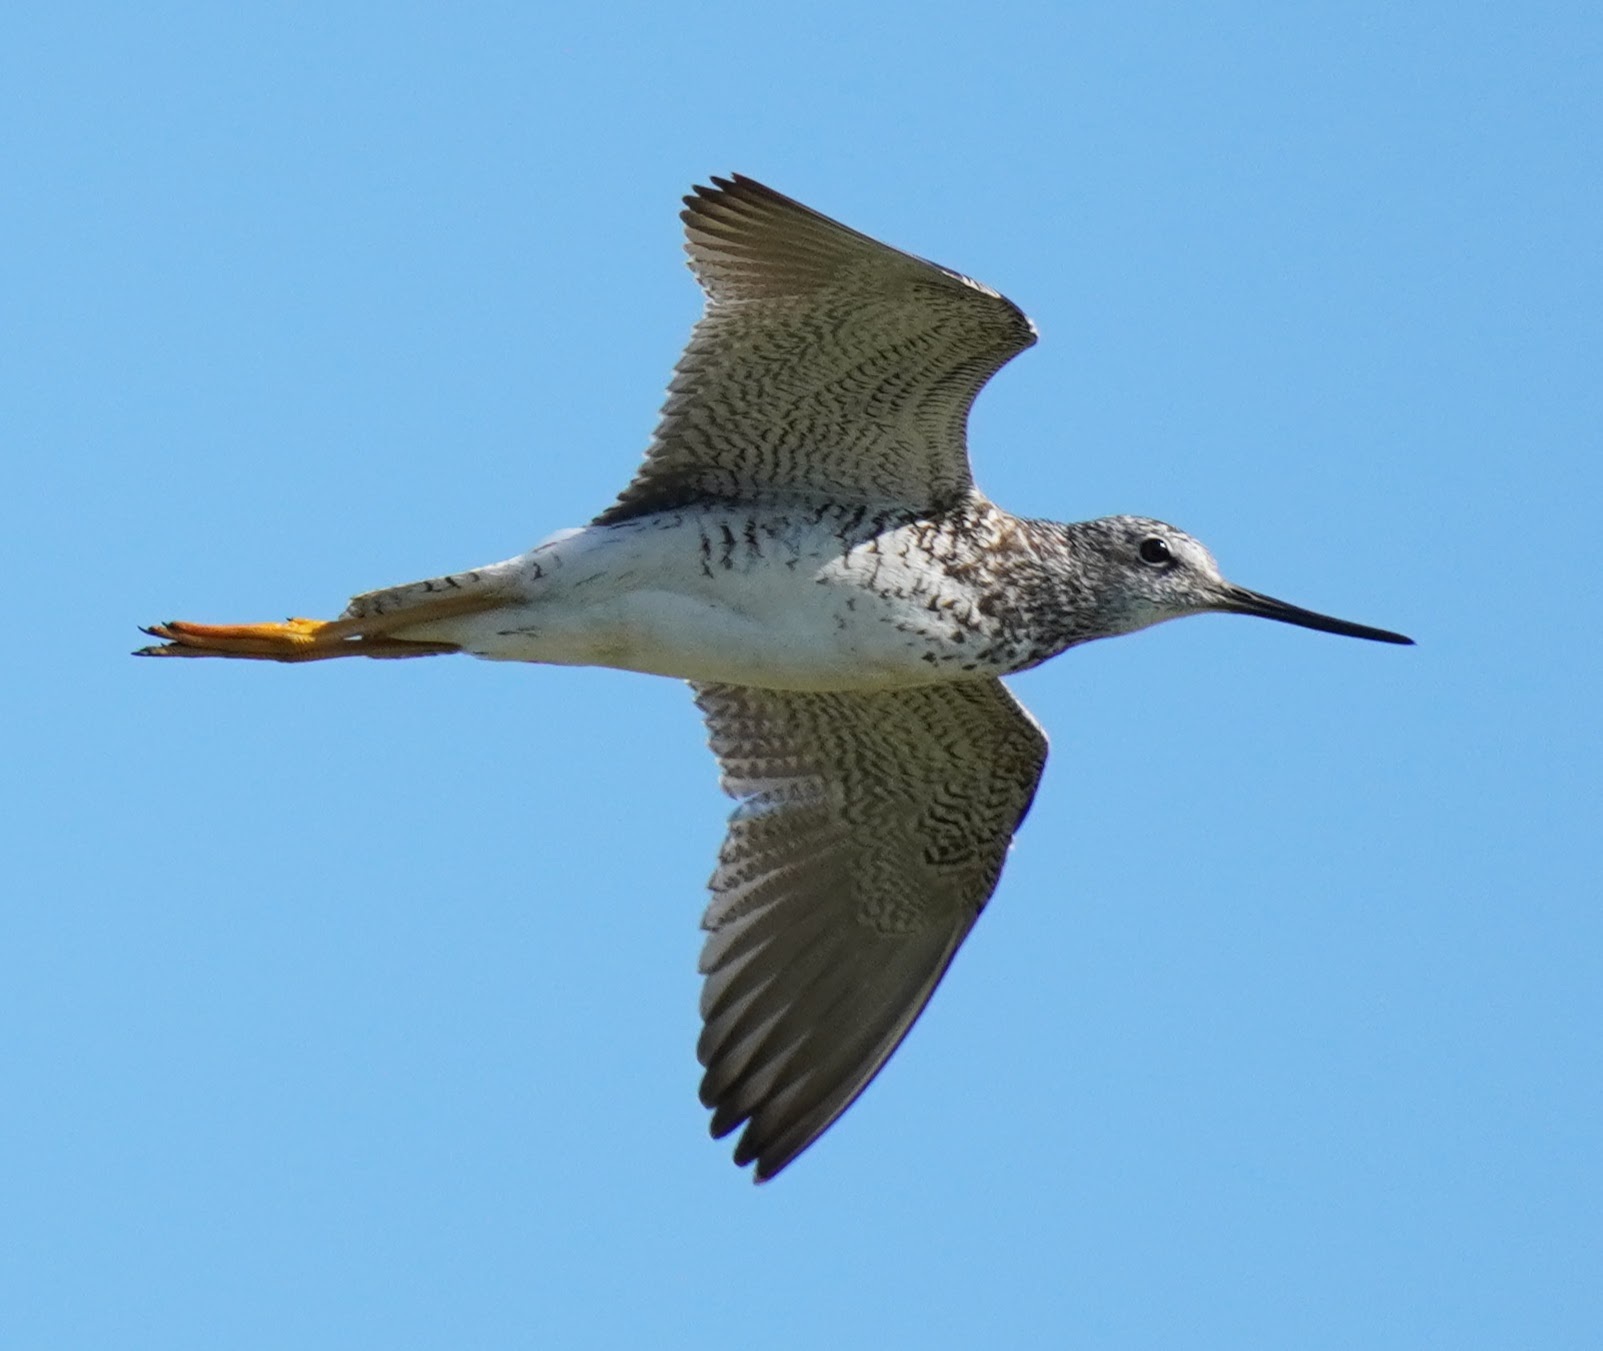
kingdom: Animalia
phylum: Chordata
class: Aves
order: Charadriiformes
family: Scolopacidae
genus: Tringa
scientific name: Tringa melanoleuca
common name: Greater yellowlegs
